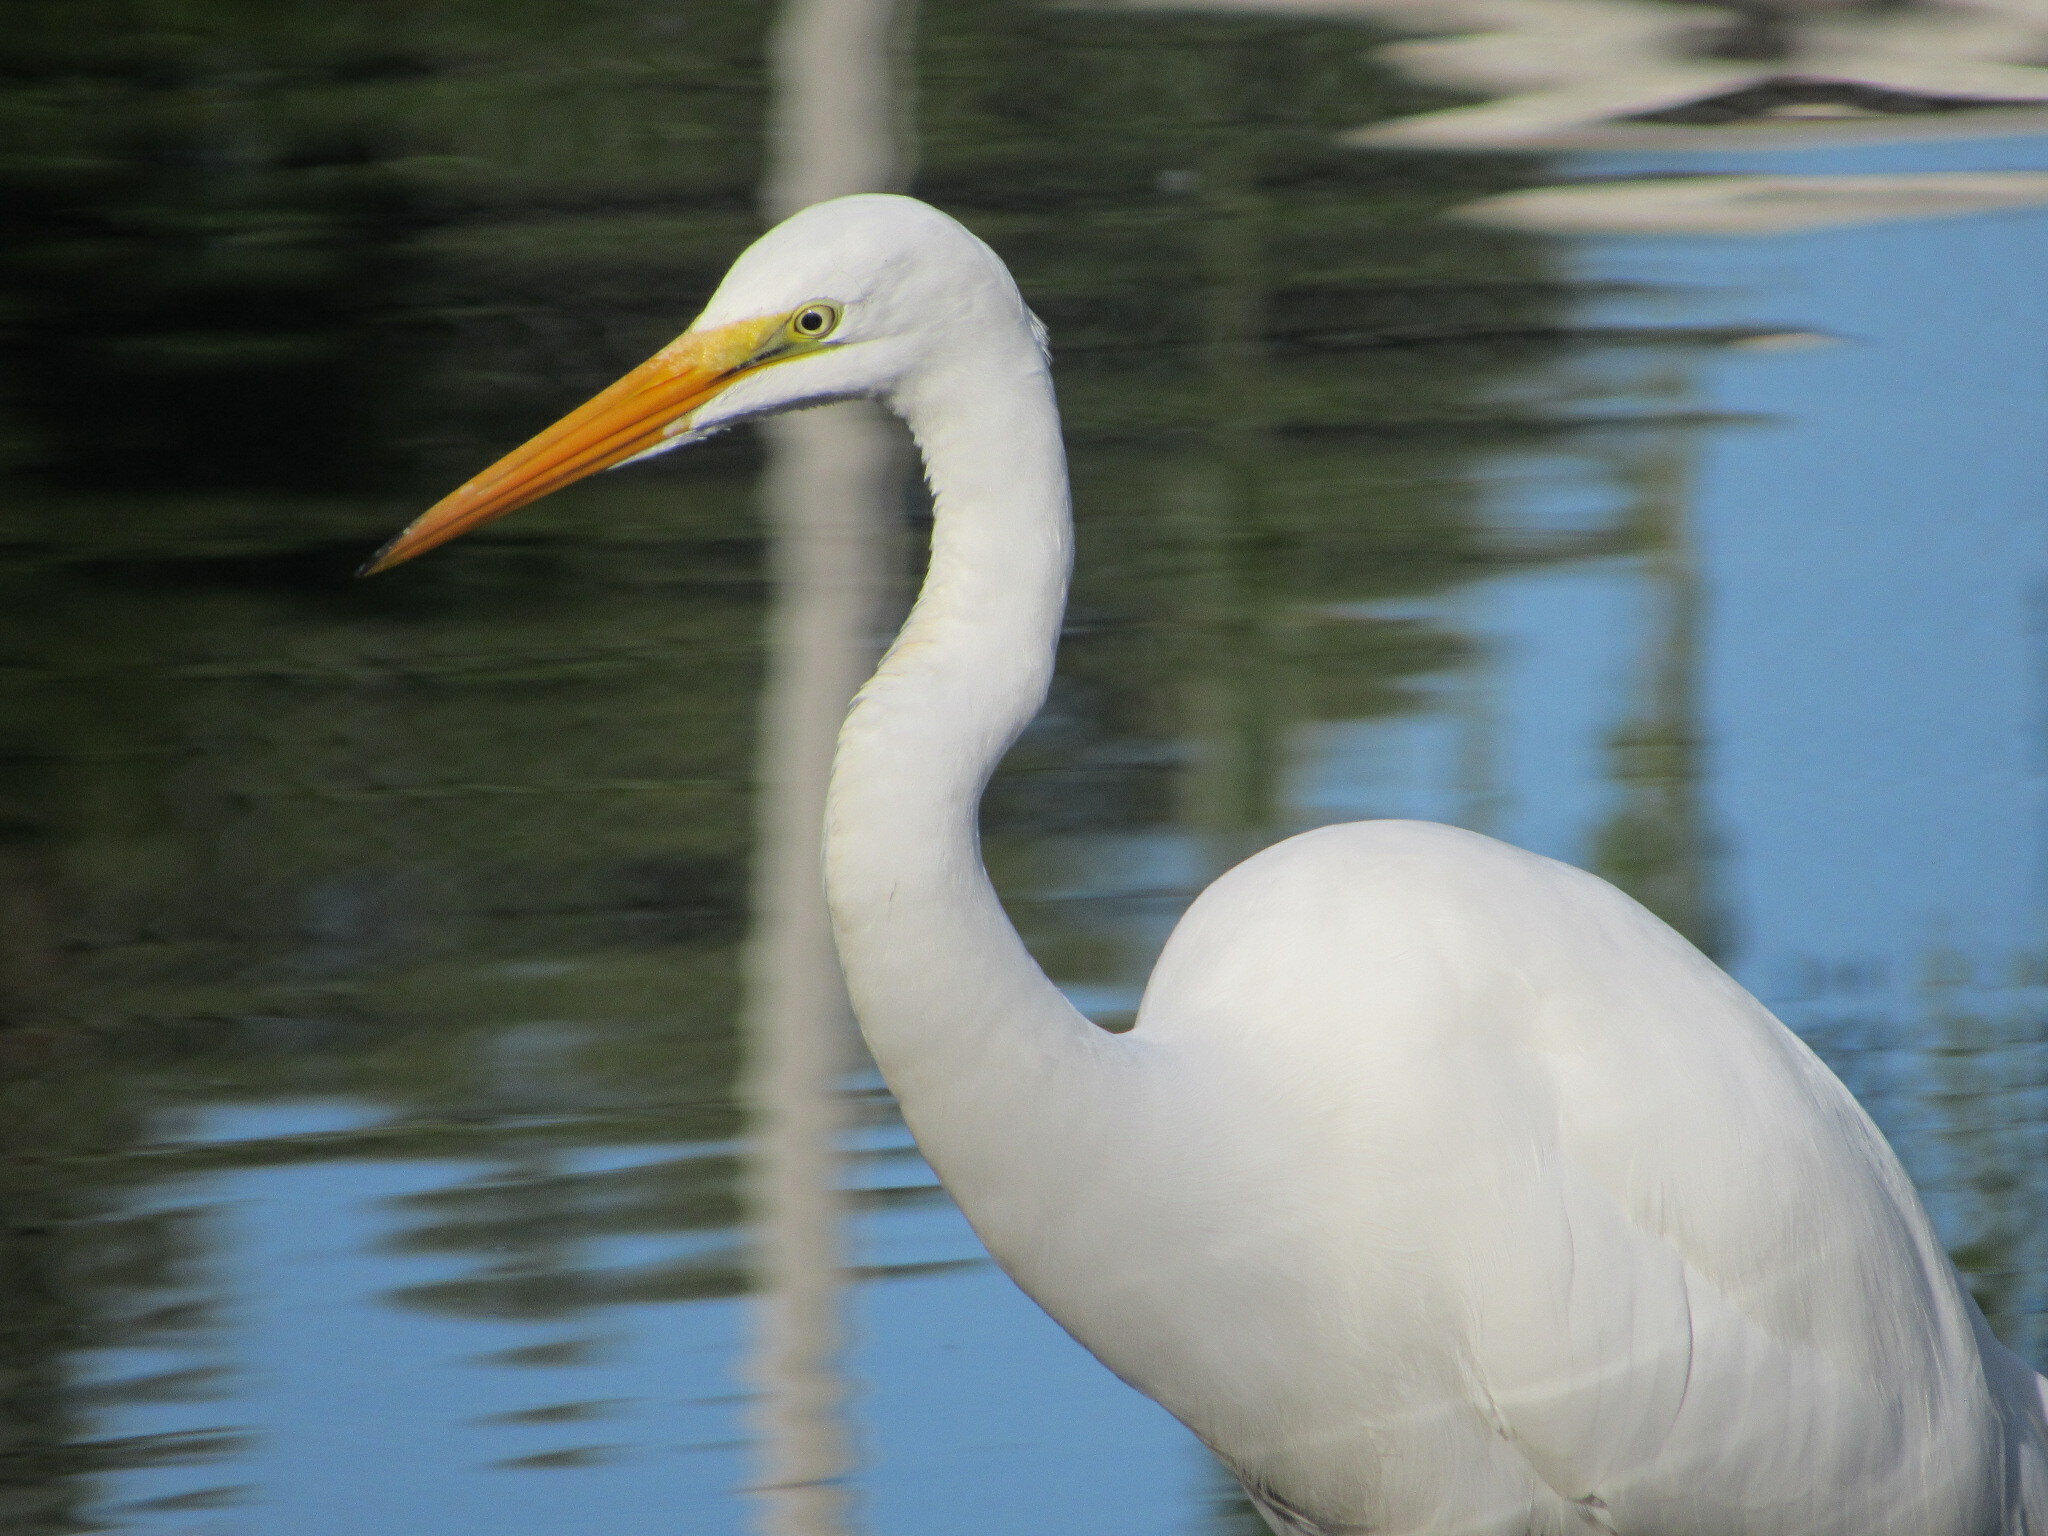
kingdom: Animalia
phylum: Chordata
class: Aves
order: Pelecaniformes
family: Ardeidae
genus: Ardea
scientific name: Ardea alba
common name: Great egret
